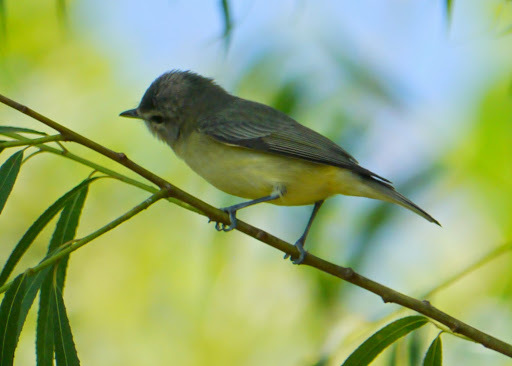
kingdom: Animalia
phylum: Chordata
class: Aves
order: Passeriformes
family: Vireonidae
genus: Vireo
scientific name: Vireo philadelphicus
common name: Philadelphia vireo
